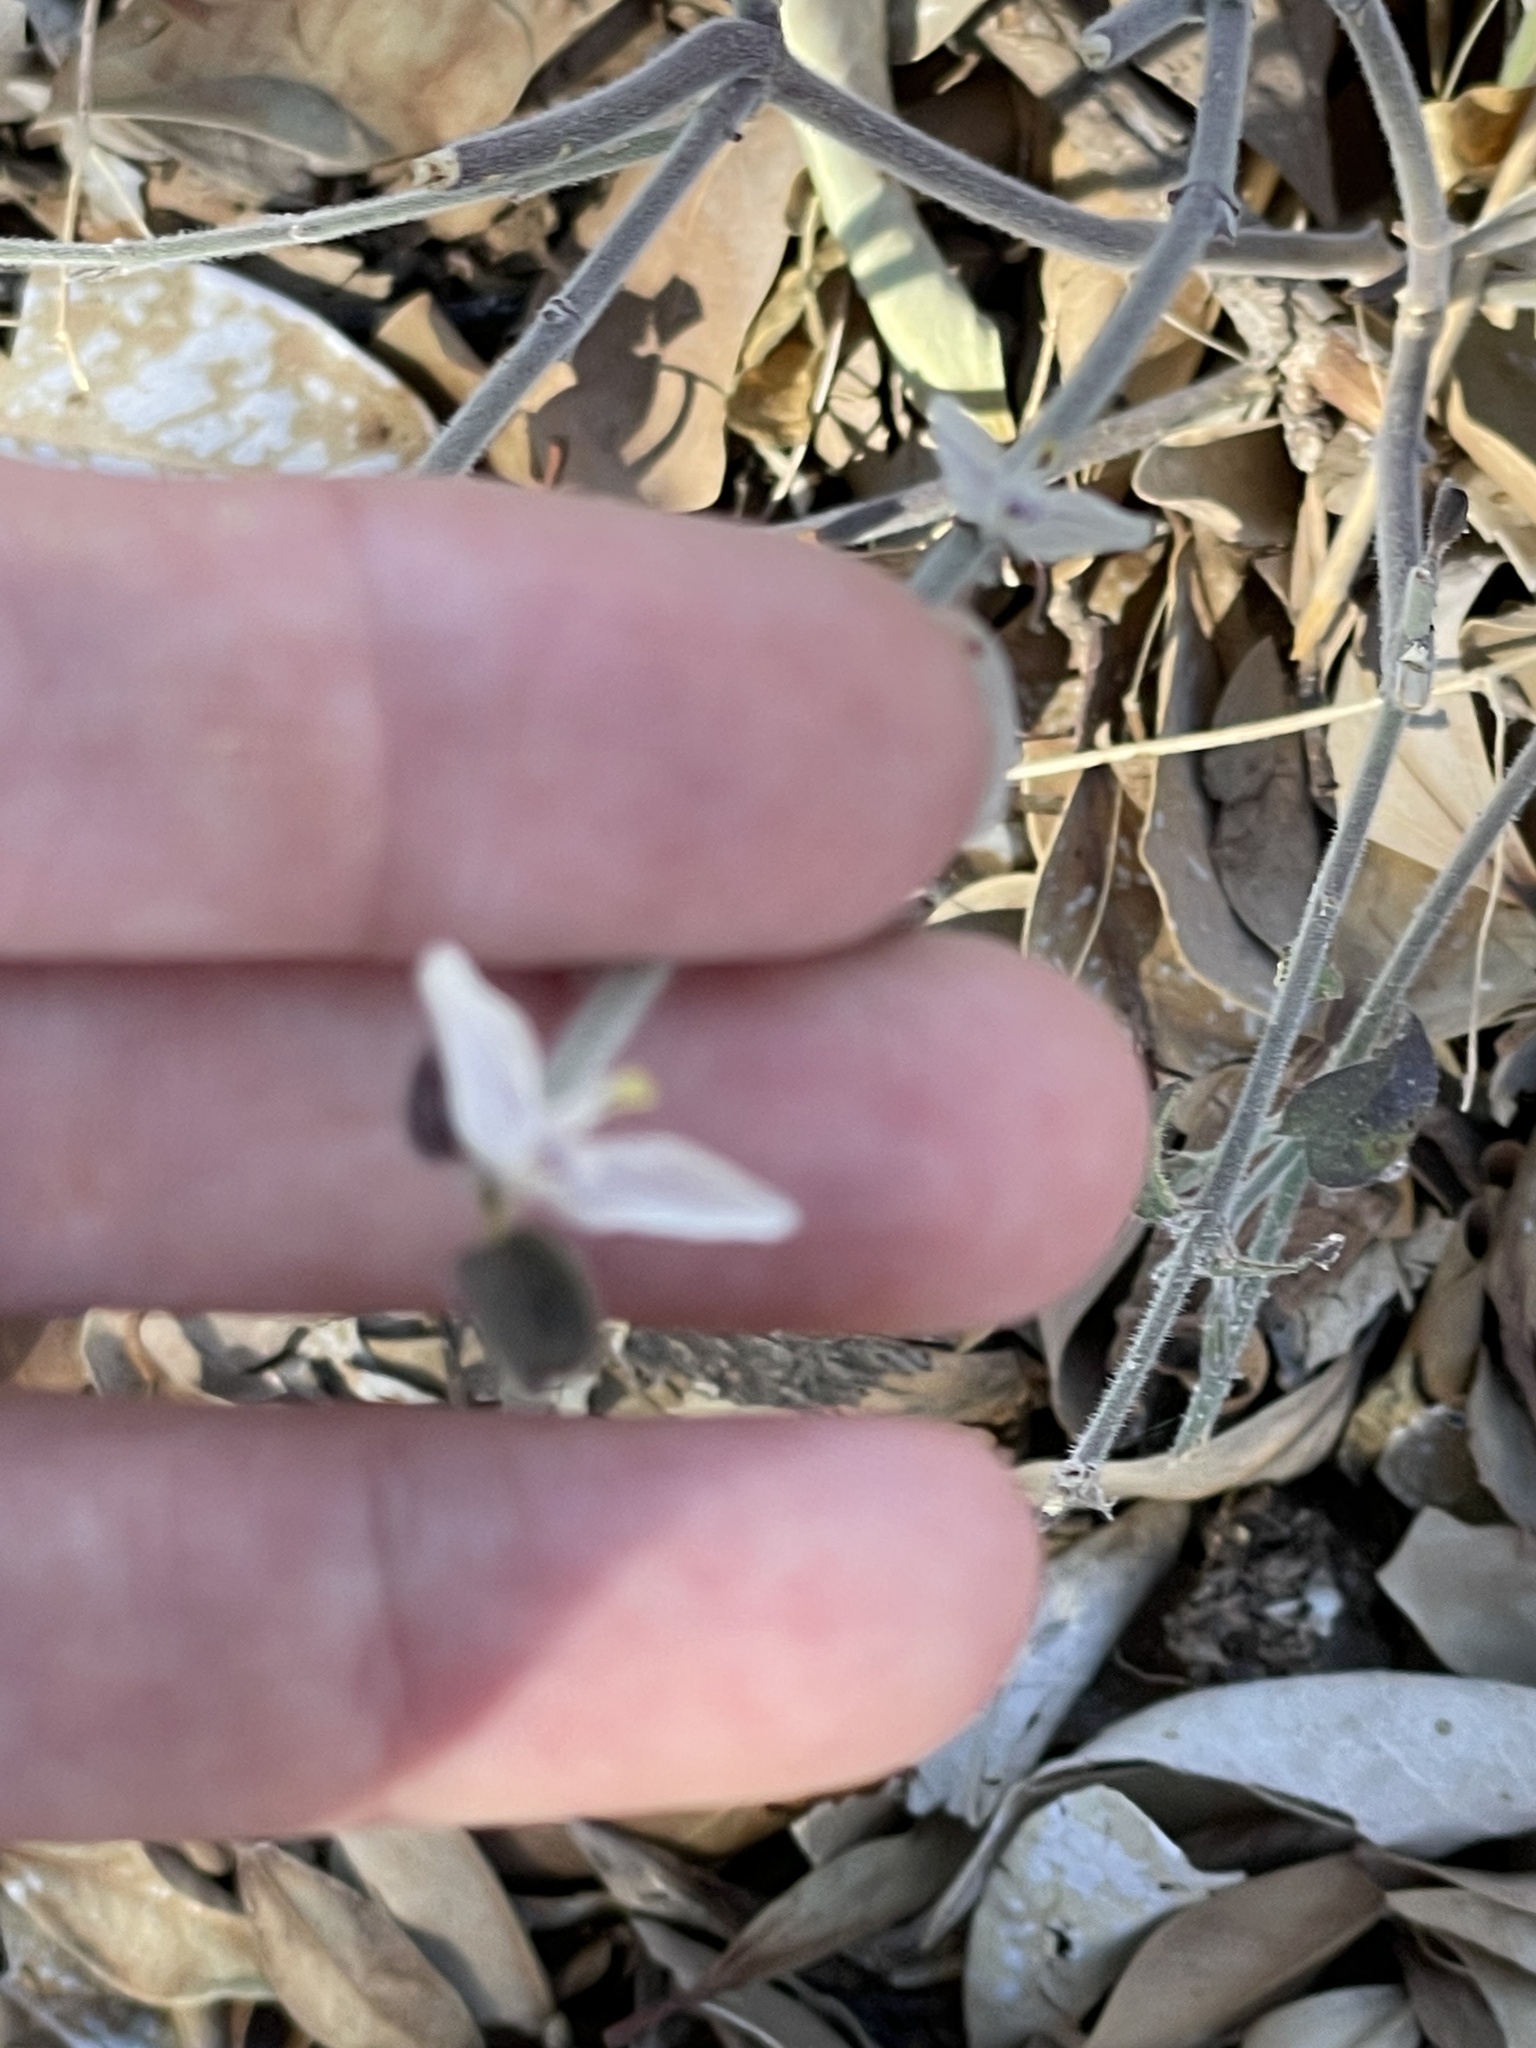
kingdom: Plantae
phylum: Tracheophyta
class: Magnoliopsida
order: Lamiales
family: Acanthaceae
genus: Carlowrightia
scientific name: Carlowrightia arizonica
